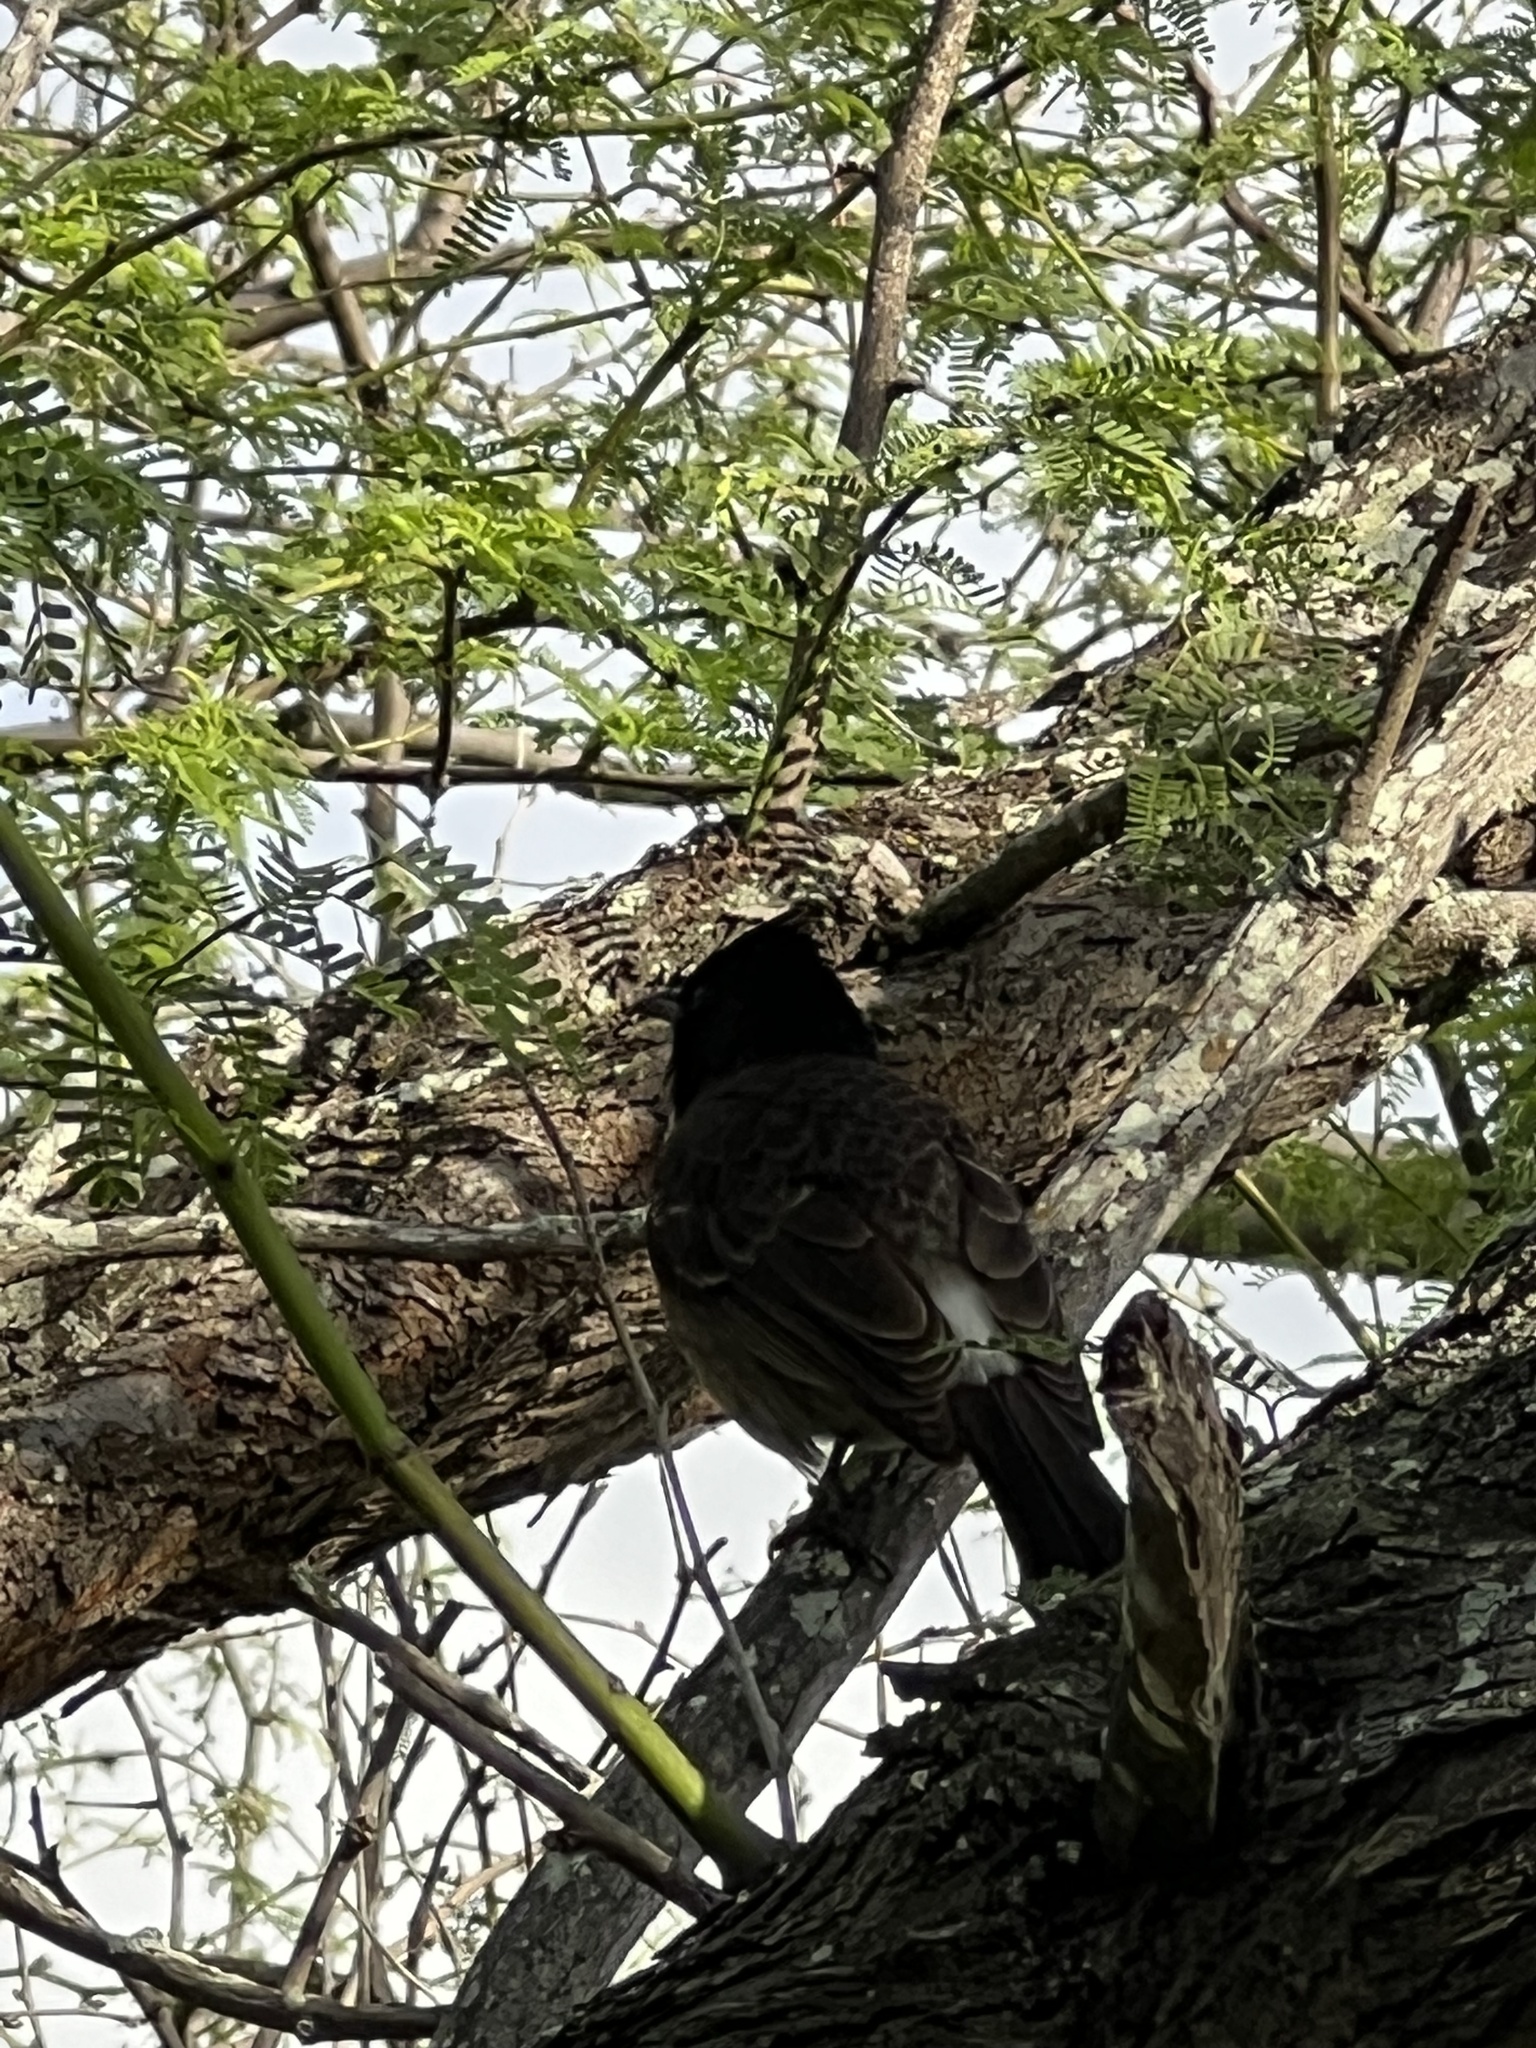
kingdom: Animalia
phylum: Chordata
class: Aves
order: Passeriformes
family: Pycnonotidae
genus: Pycnonotus
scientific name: Pycnonotus cafer
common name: Red-vented bulbul
